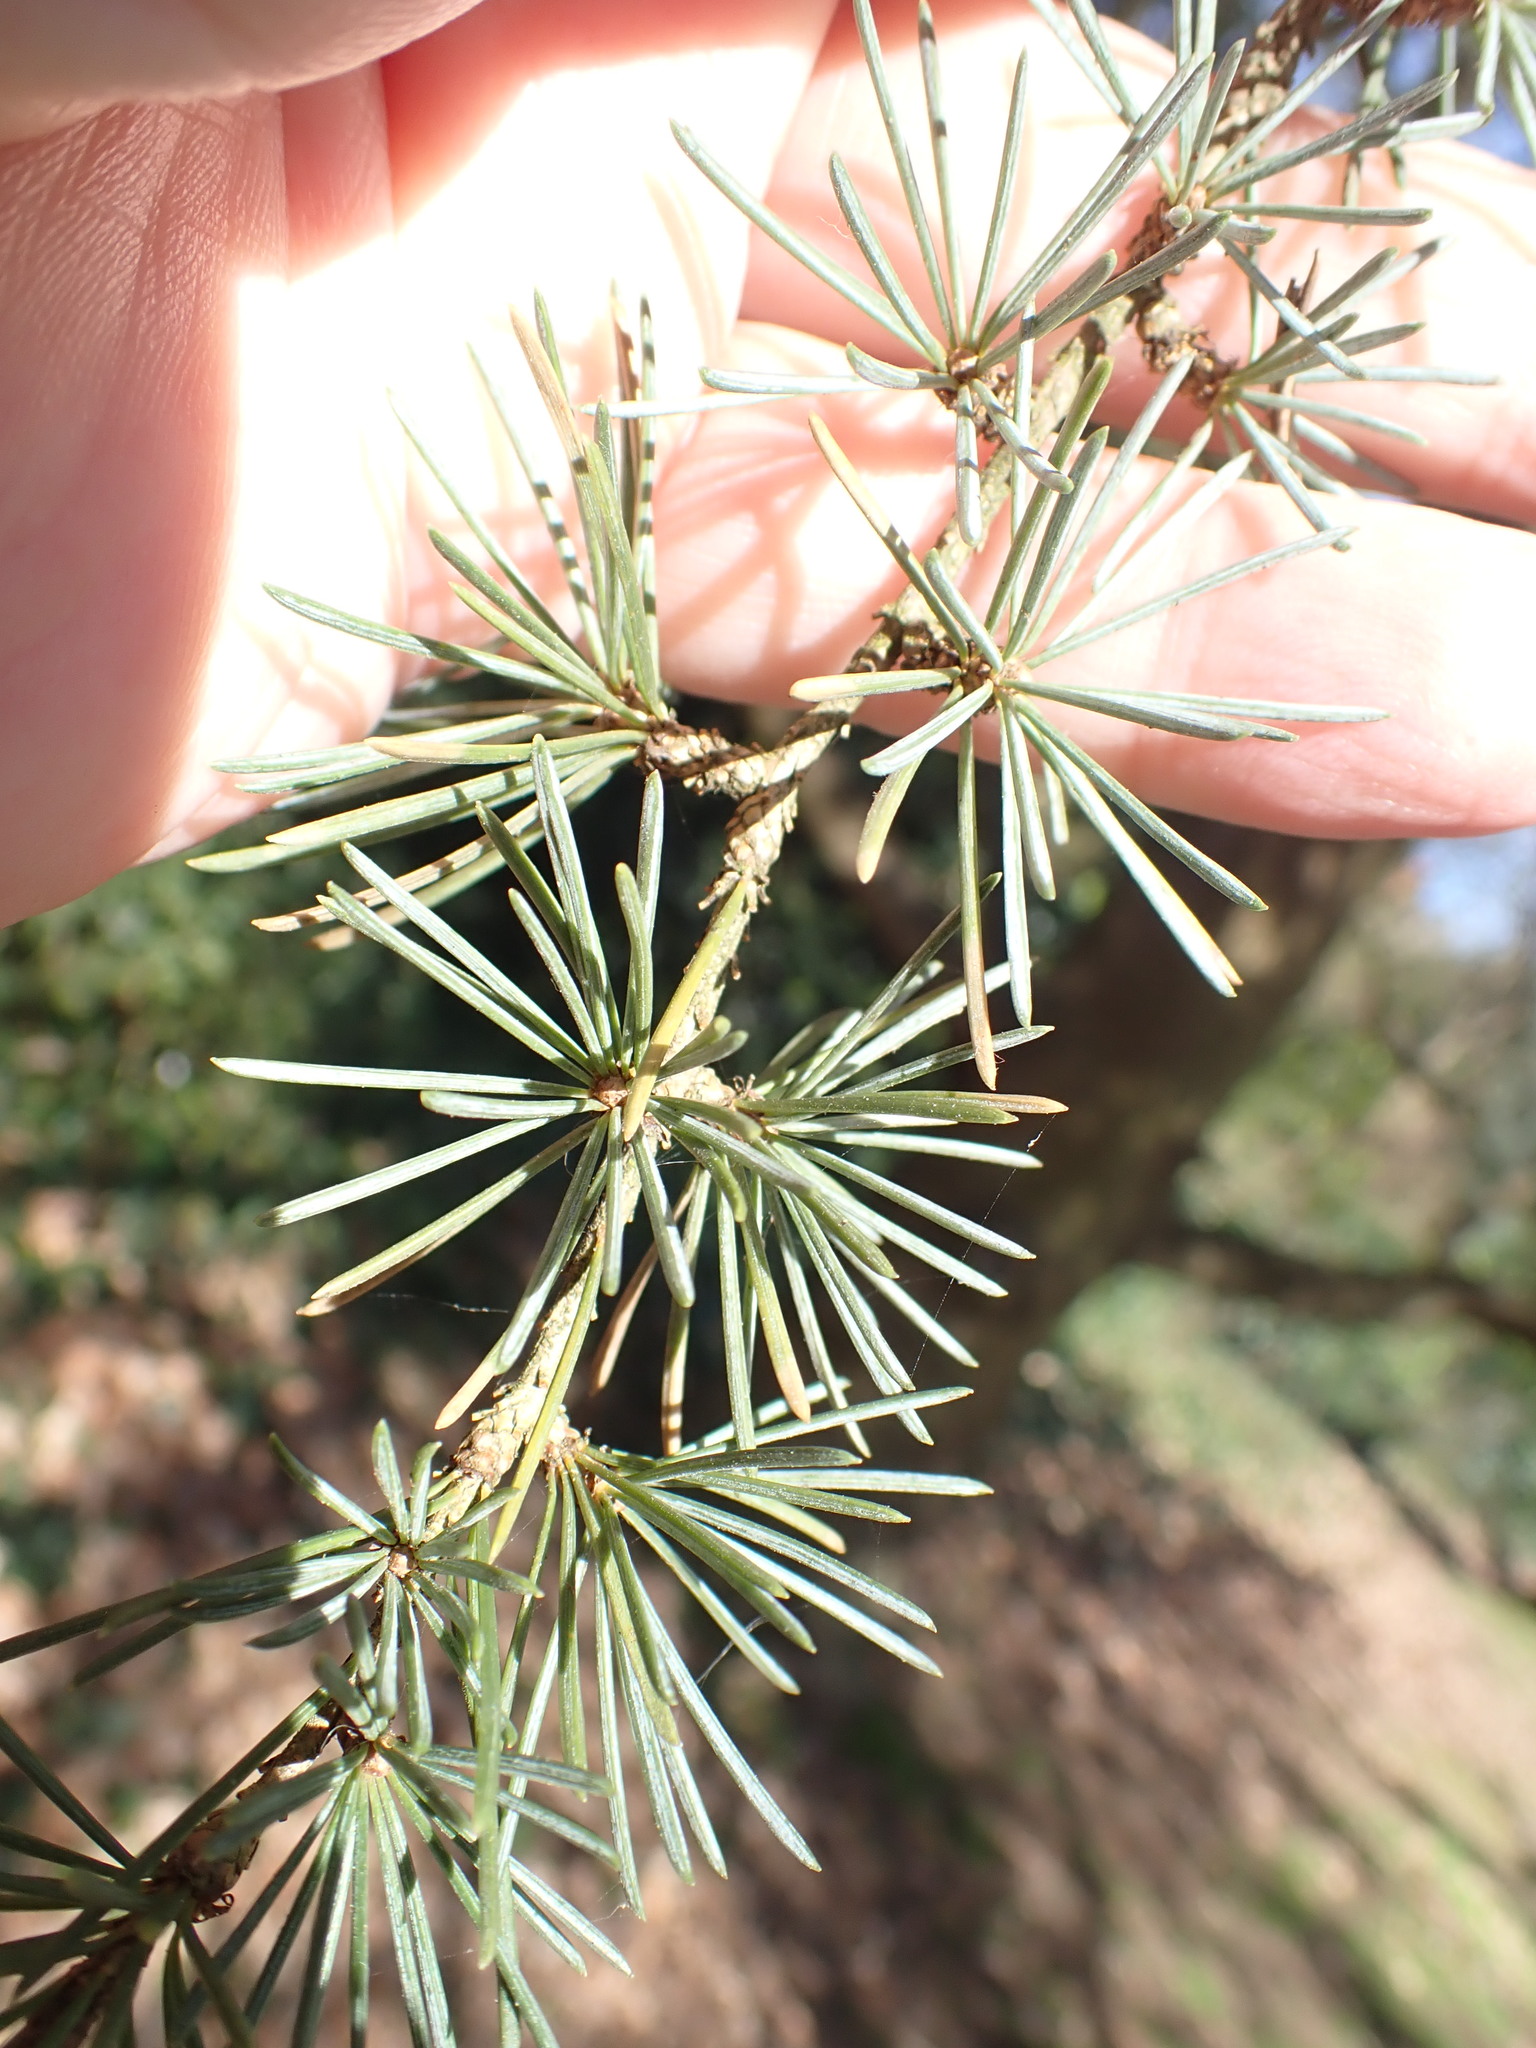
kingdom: Plantae
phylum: Tracheophyta
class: Pinopsida
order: Pinales
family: Pinaceae
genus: Cedrus
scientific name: Cedrus atlantica
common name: Atlas cedar
